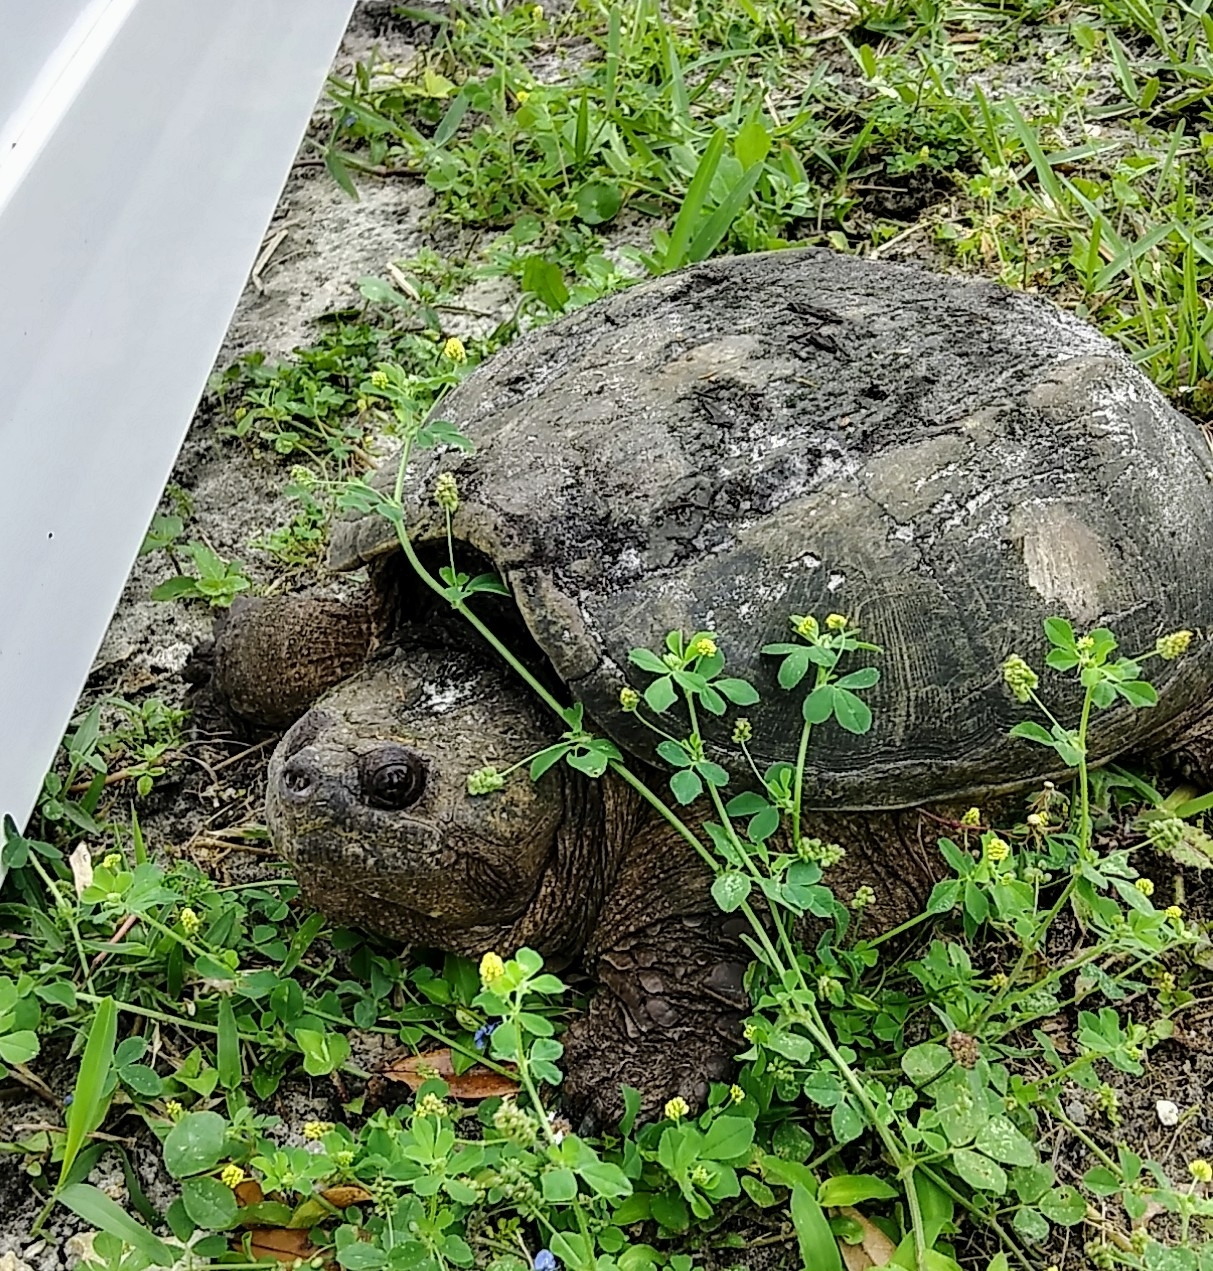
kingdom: Animalia
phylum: Chordata
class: Testudines
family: Chelydridae
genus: Chelydra
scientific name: Chelydra serpentina
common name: Common snapping turtle
